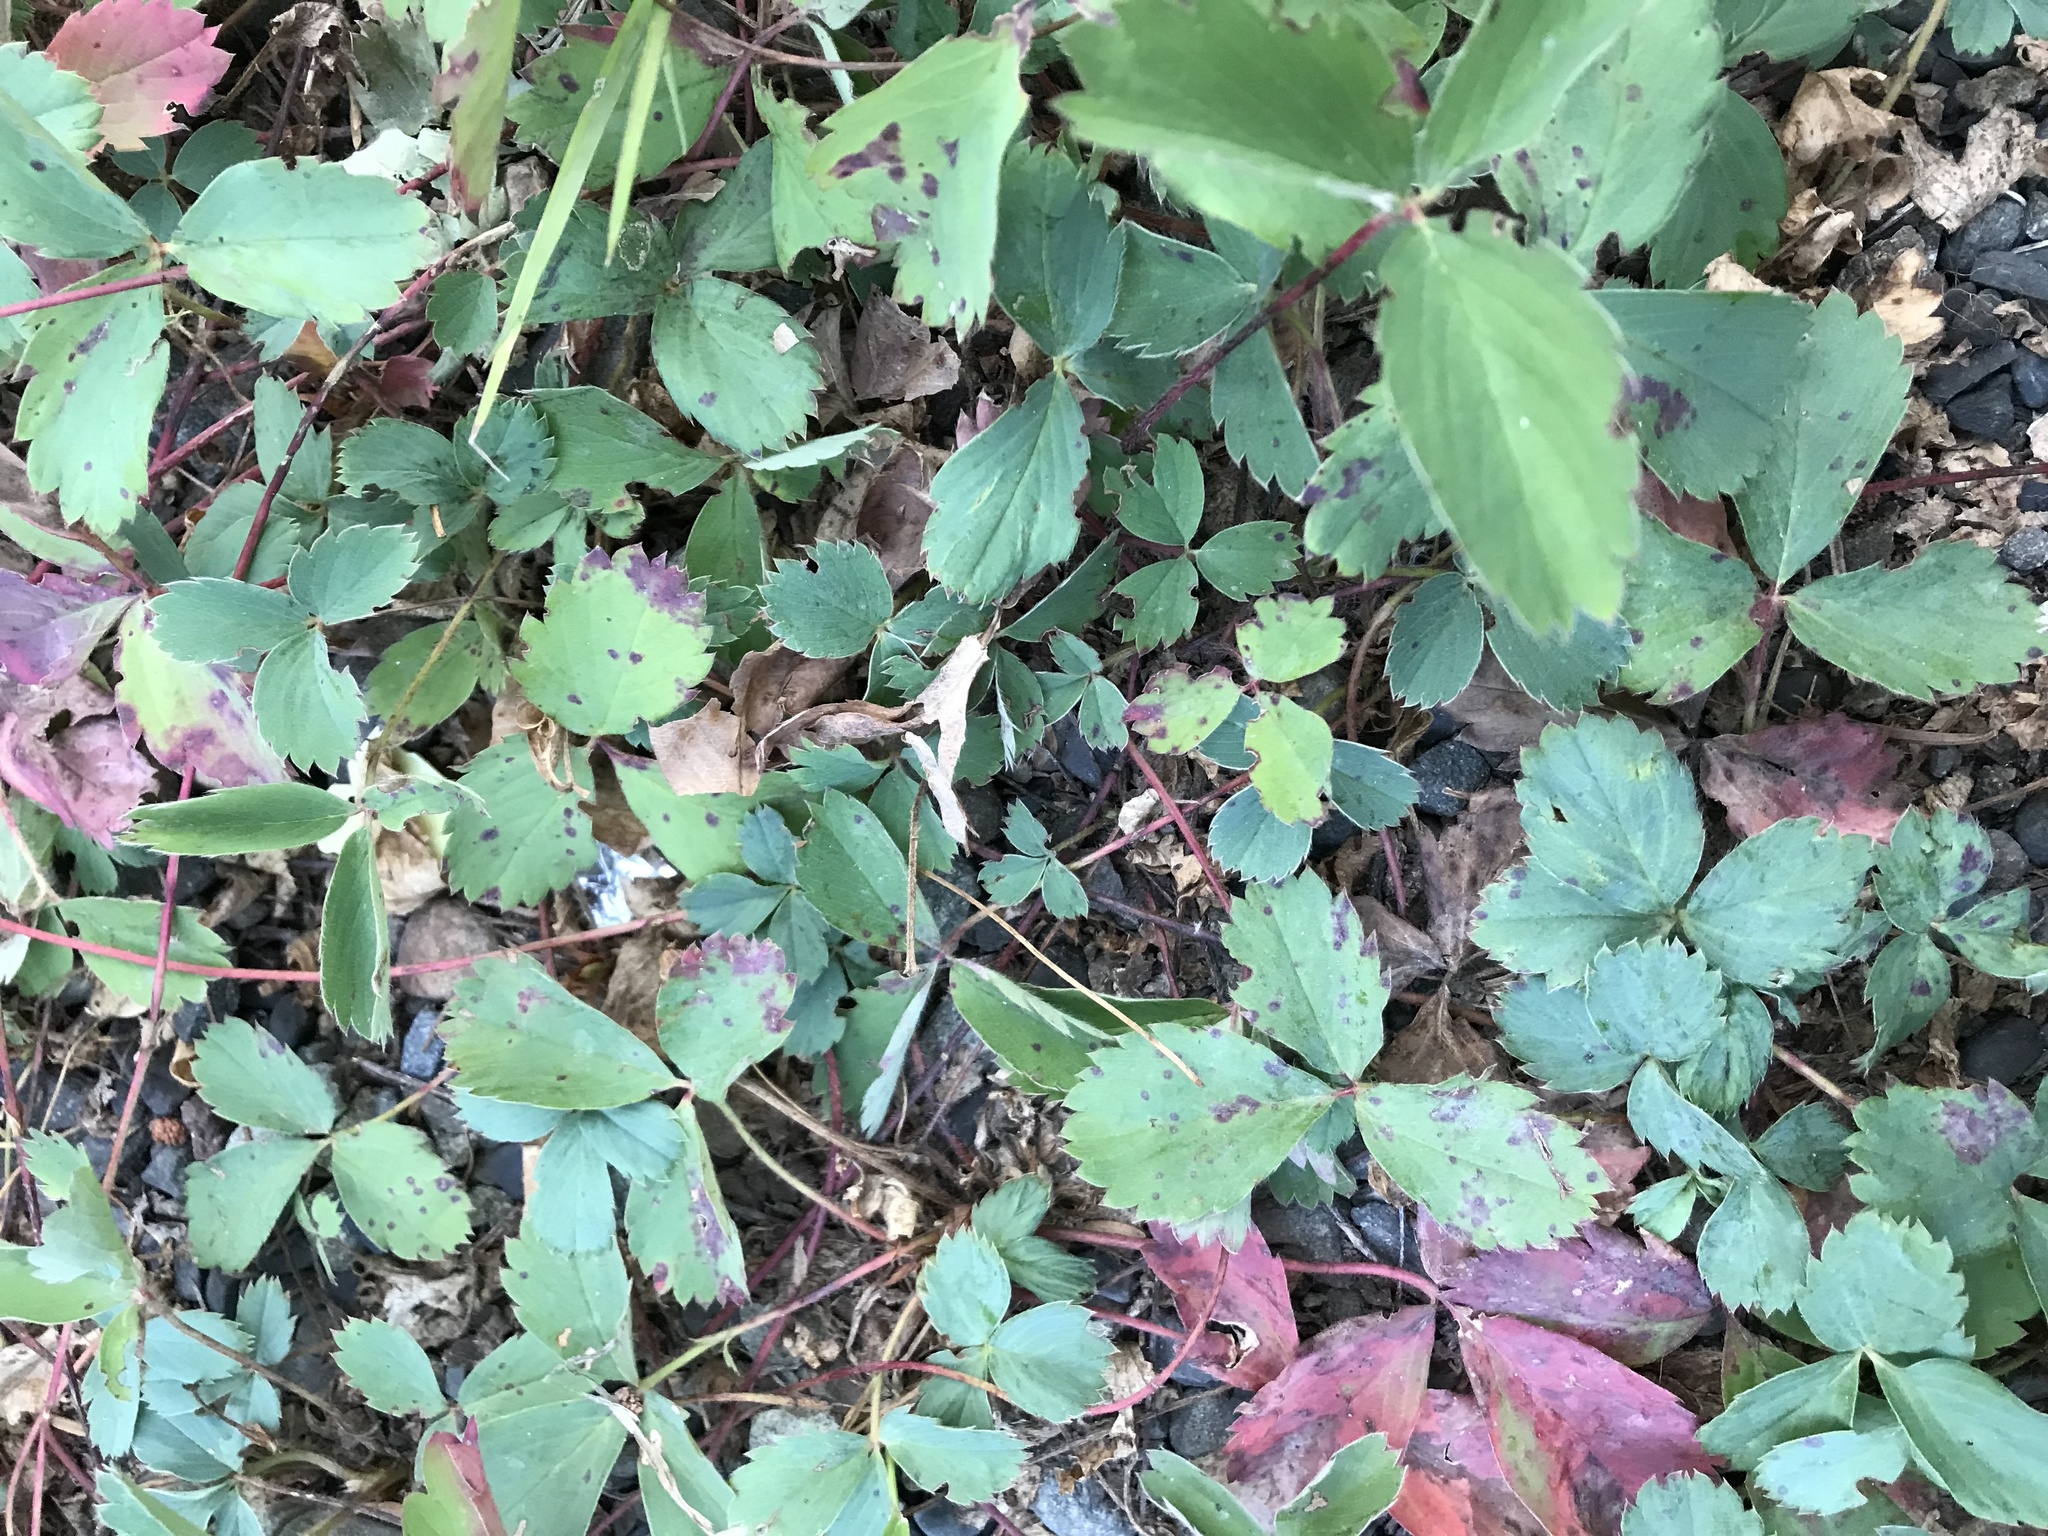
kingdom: Plantae
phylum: Tracheophyta
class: Magnoliopsida
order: Rosales
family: Rosaceae
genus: Fragaria
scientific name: Fragaria virginiana
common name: Thickleaved wild strawberry
